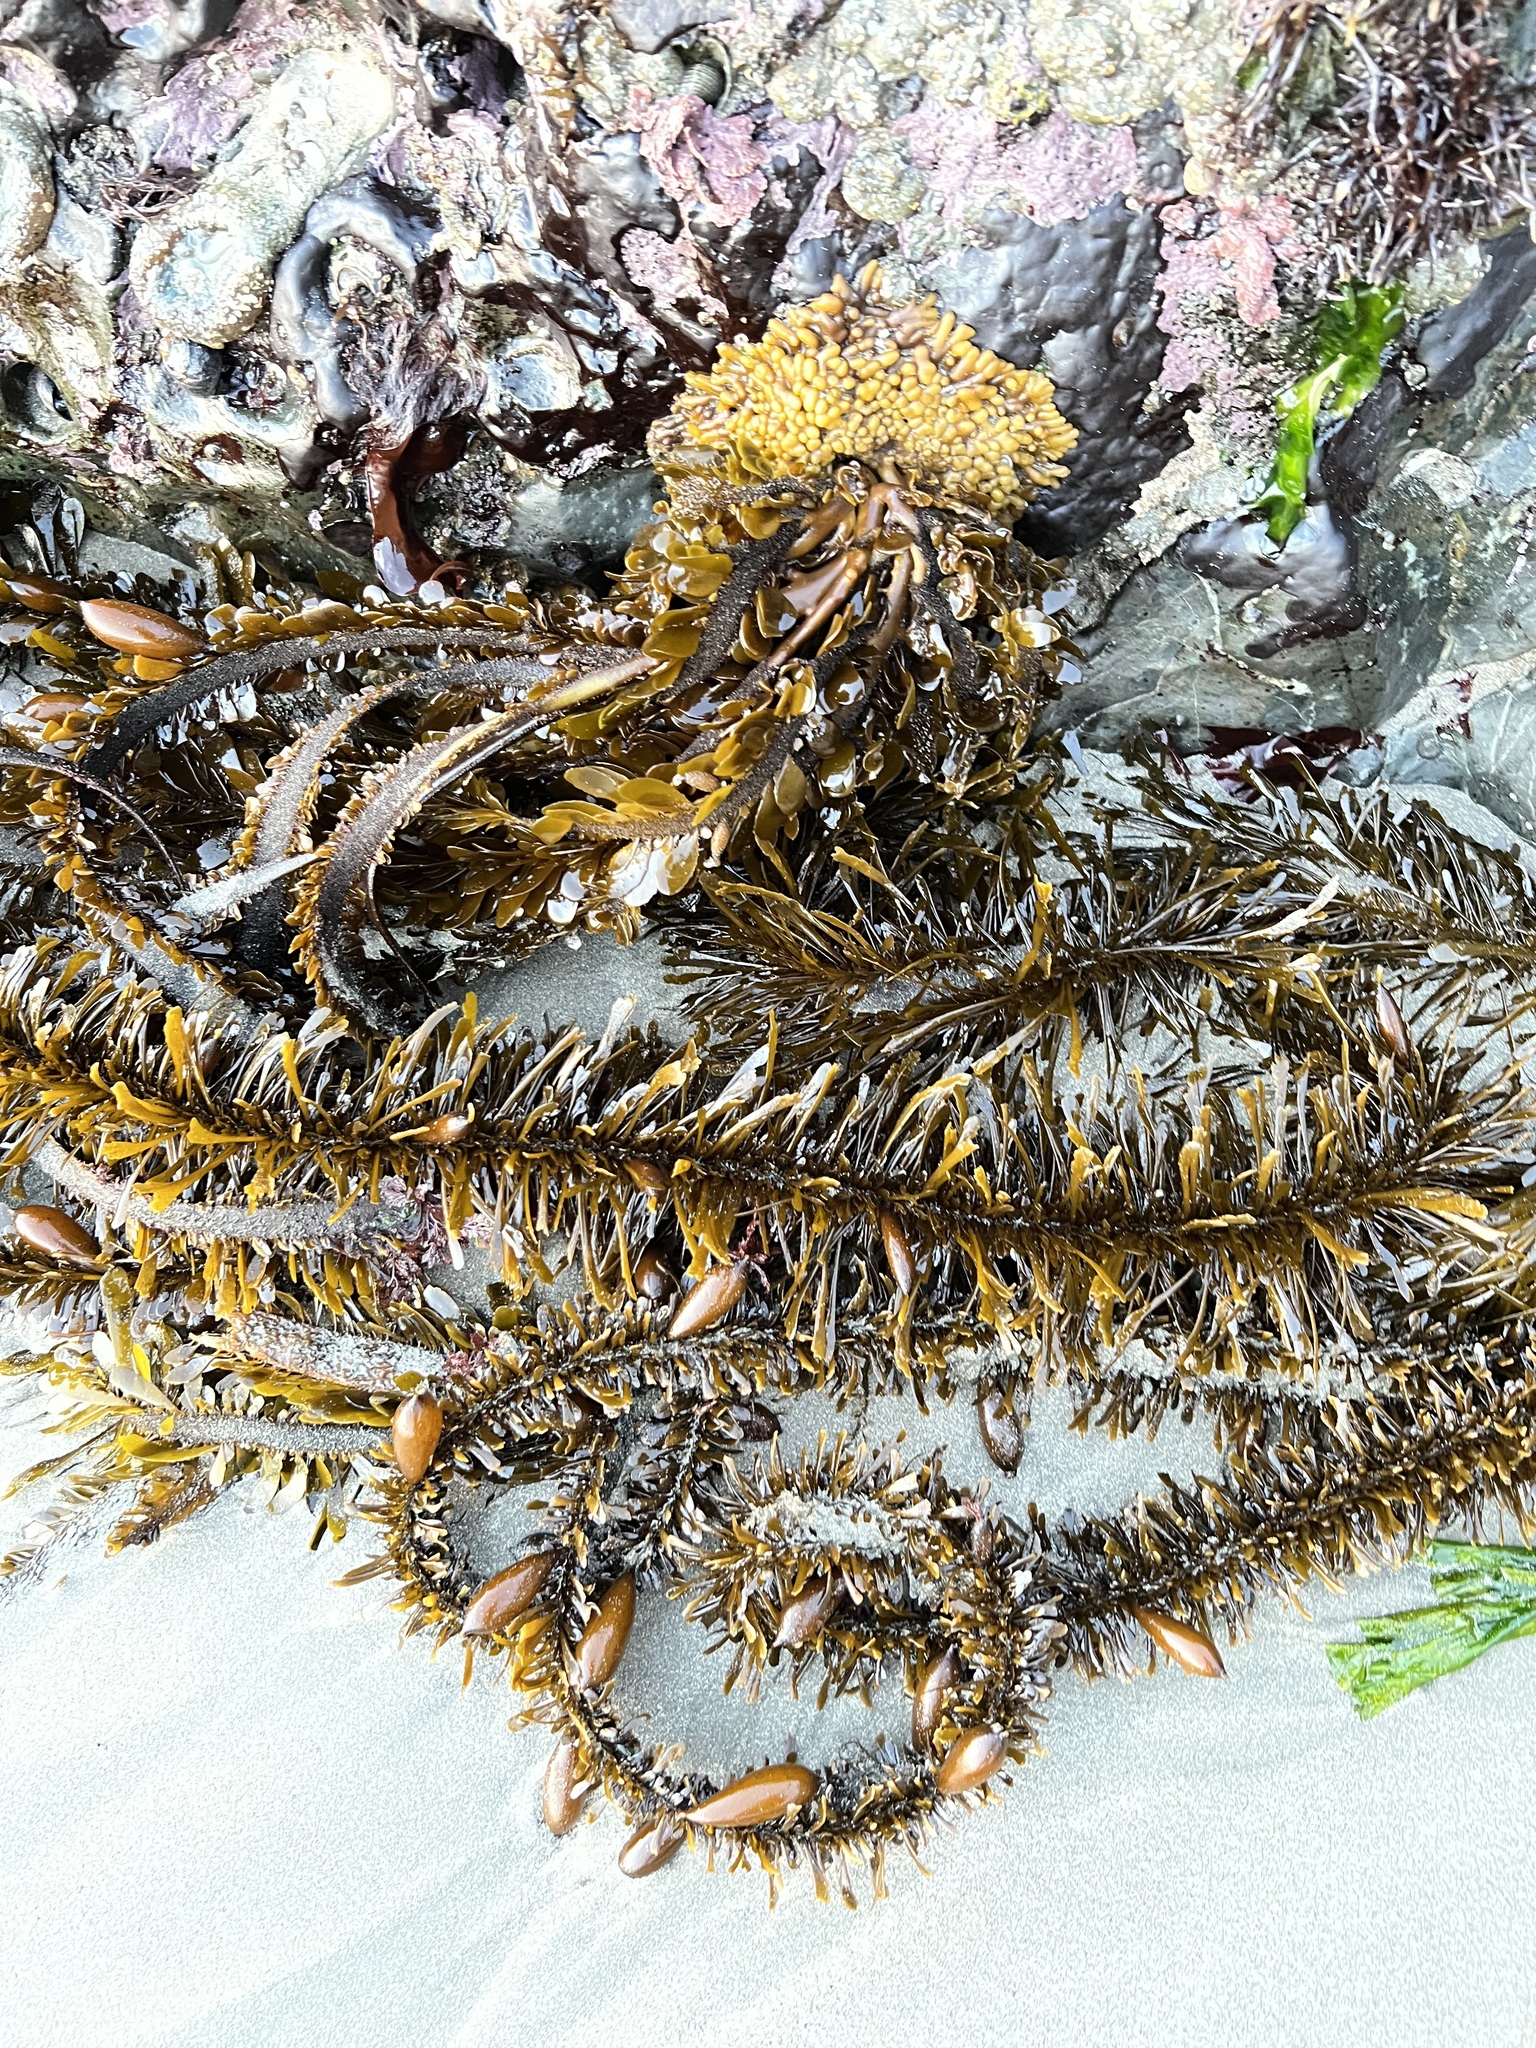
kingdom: Chromista
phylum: Ochrophyta
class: Phaeophyceae
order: Laminariales
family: Lessoniaceae
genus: Egregia
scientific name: Egregia menziesii
